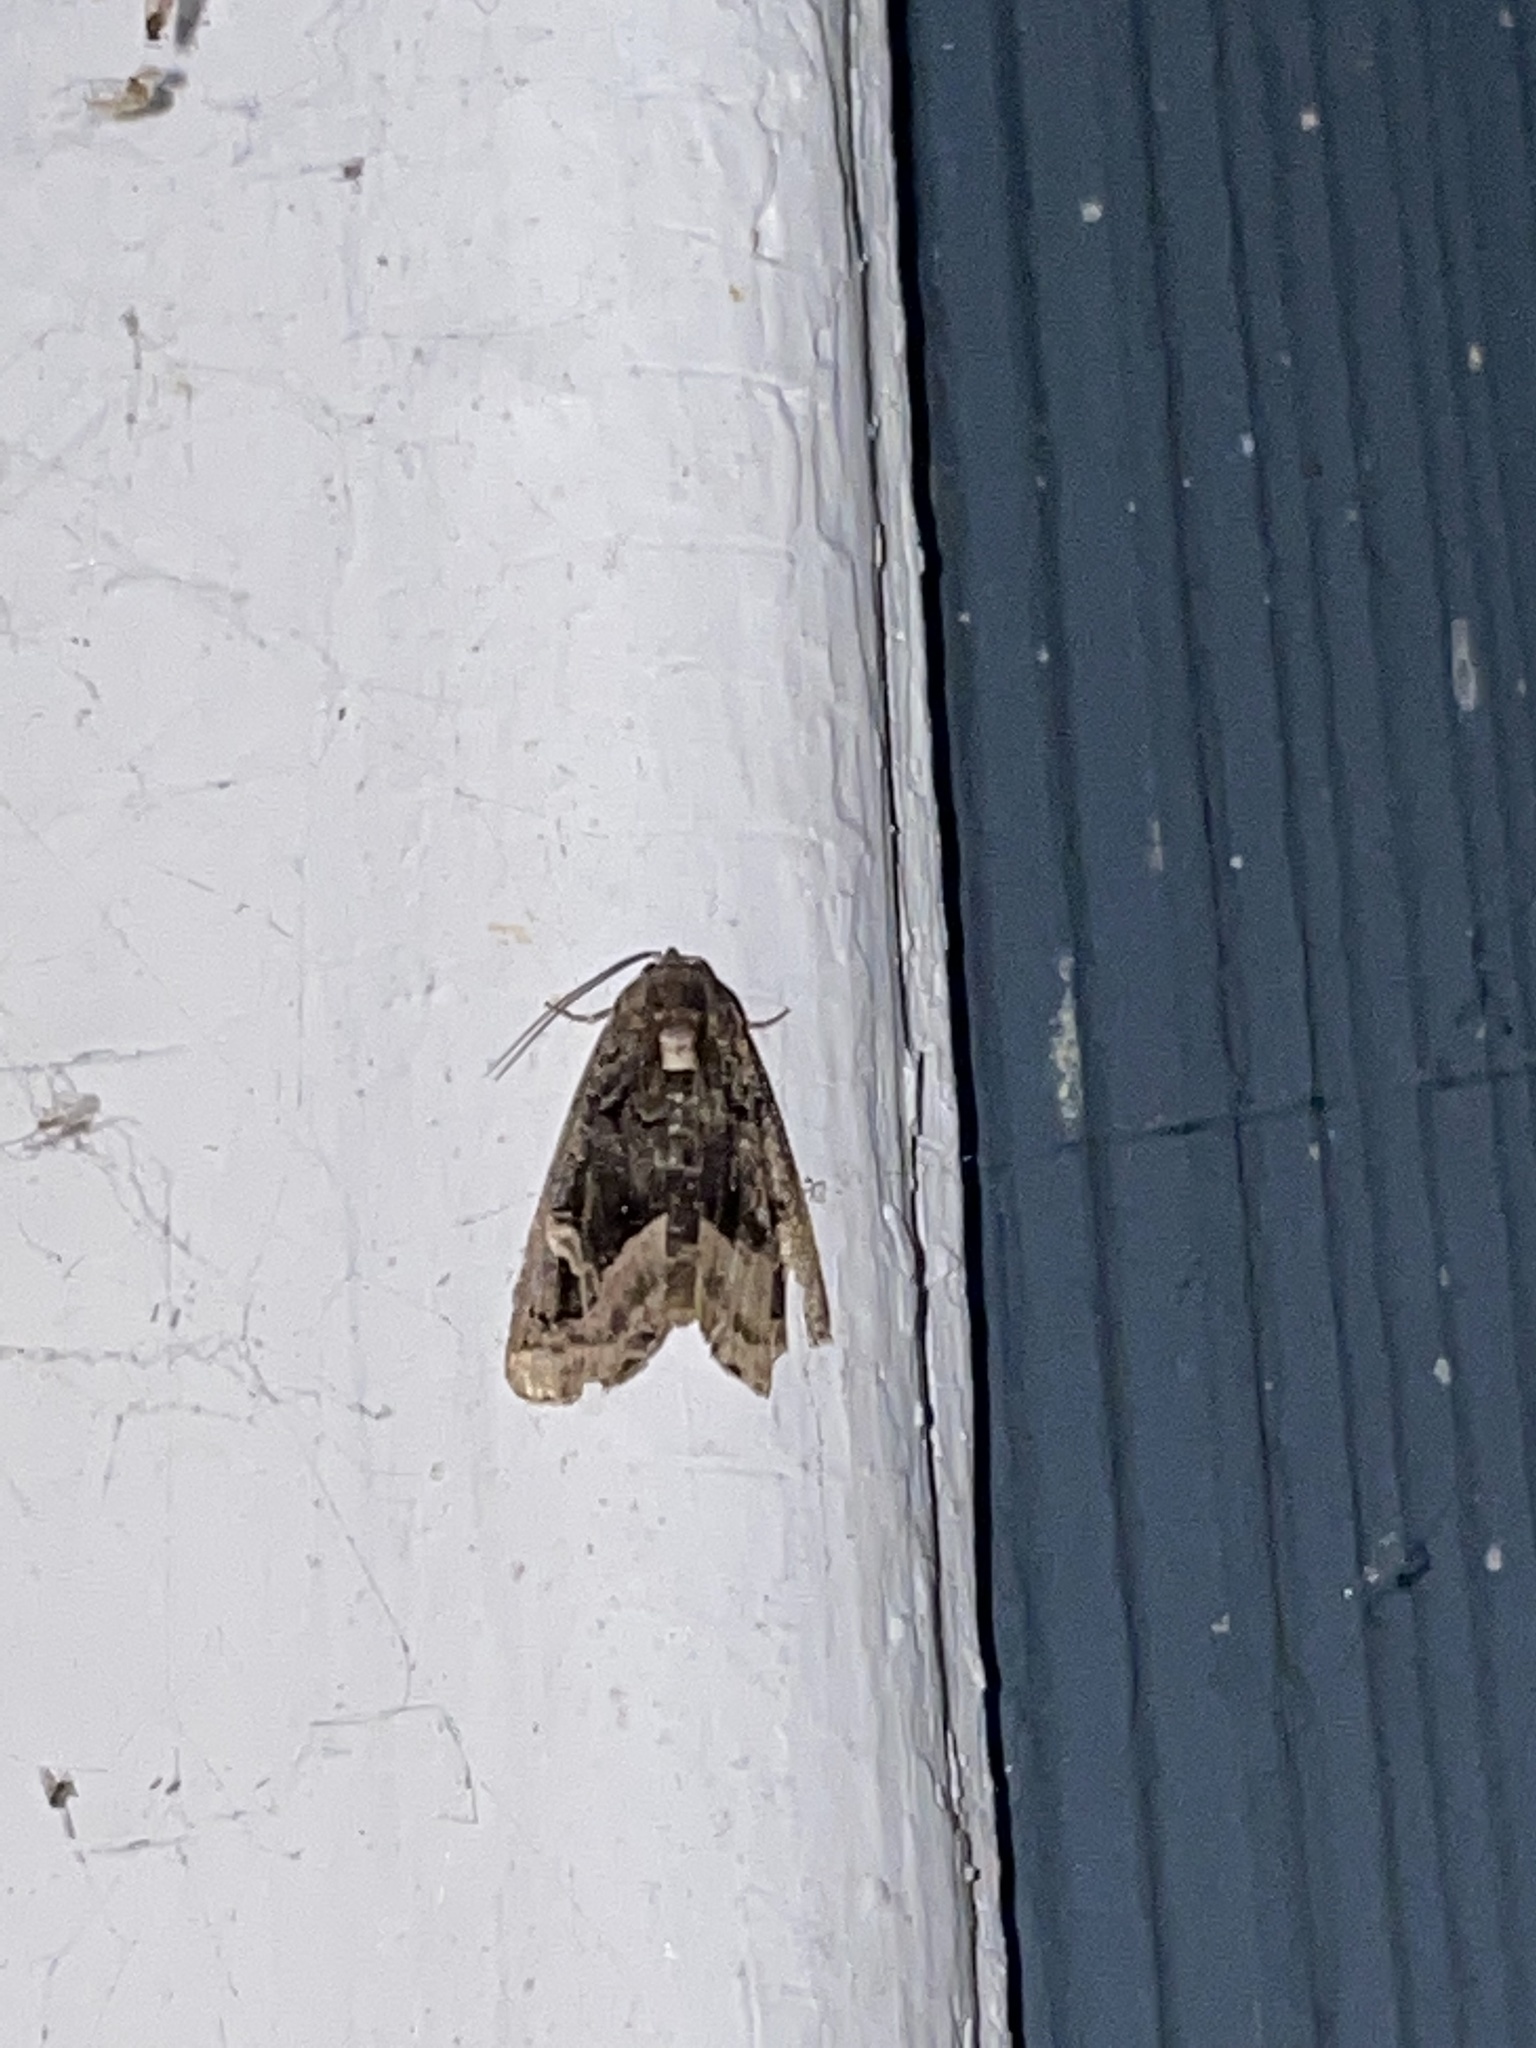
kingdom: Animalia
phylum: Arthropoda
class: Insecta
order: Lepidoptera
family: Noctuidae
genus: Homophoberia
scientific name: Homophoberia apicosa
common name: Black wedge-spot
